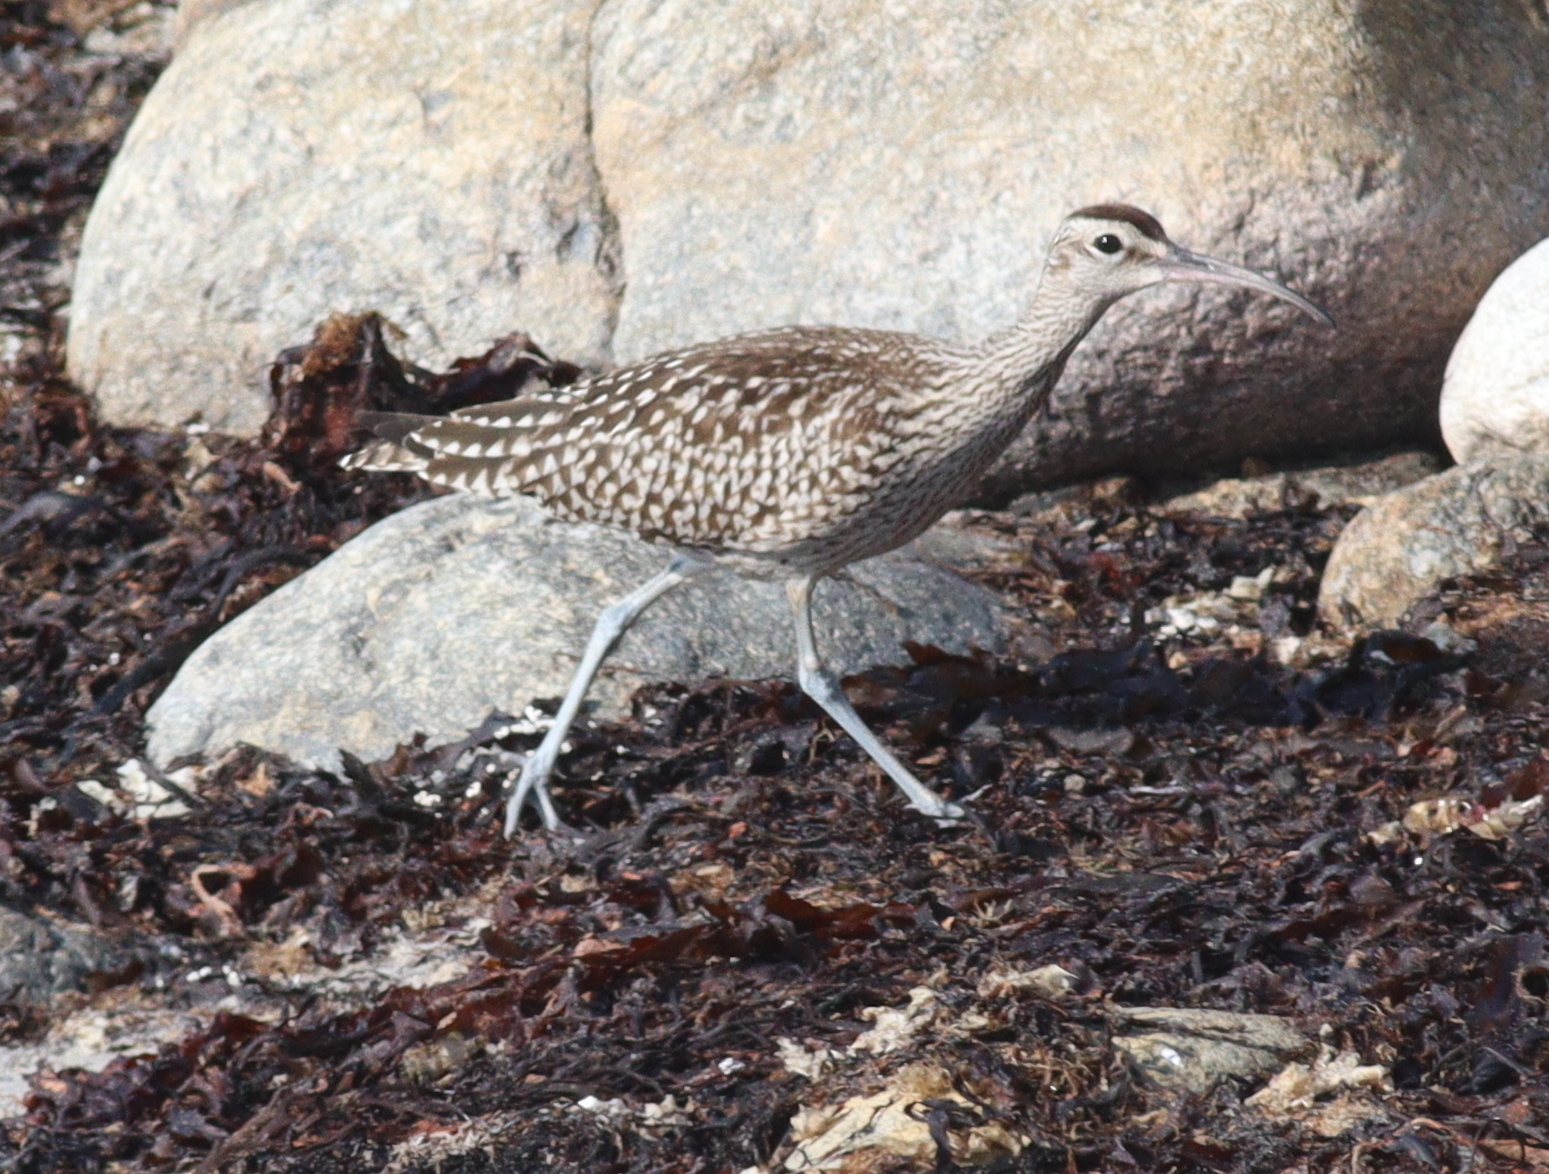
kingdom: Animalia
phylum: Chordata
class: Aves
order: Charadriiformes
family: Scolopacidae
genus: Numenius
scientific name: Numenius phaeopus
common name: Whimbrel
